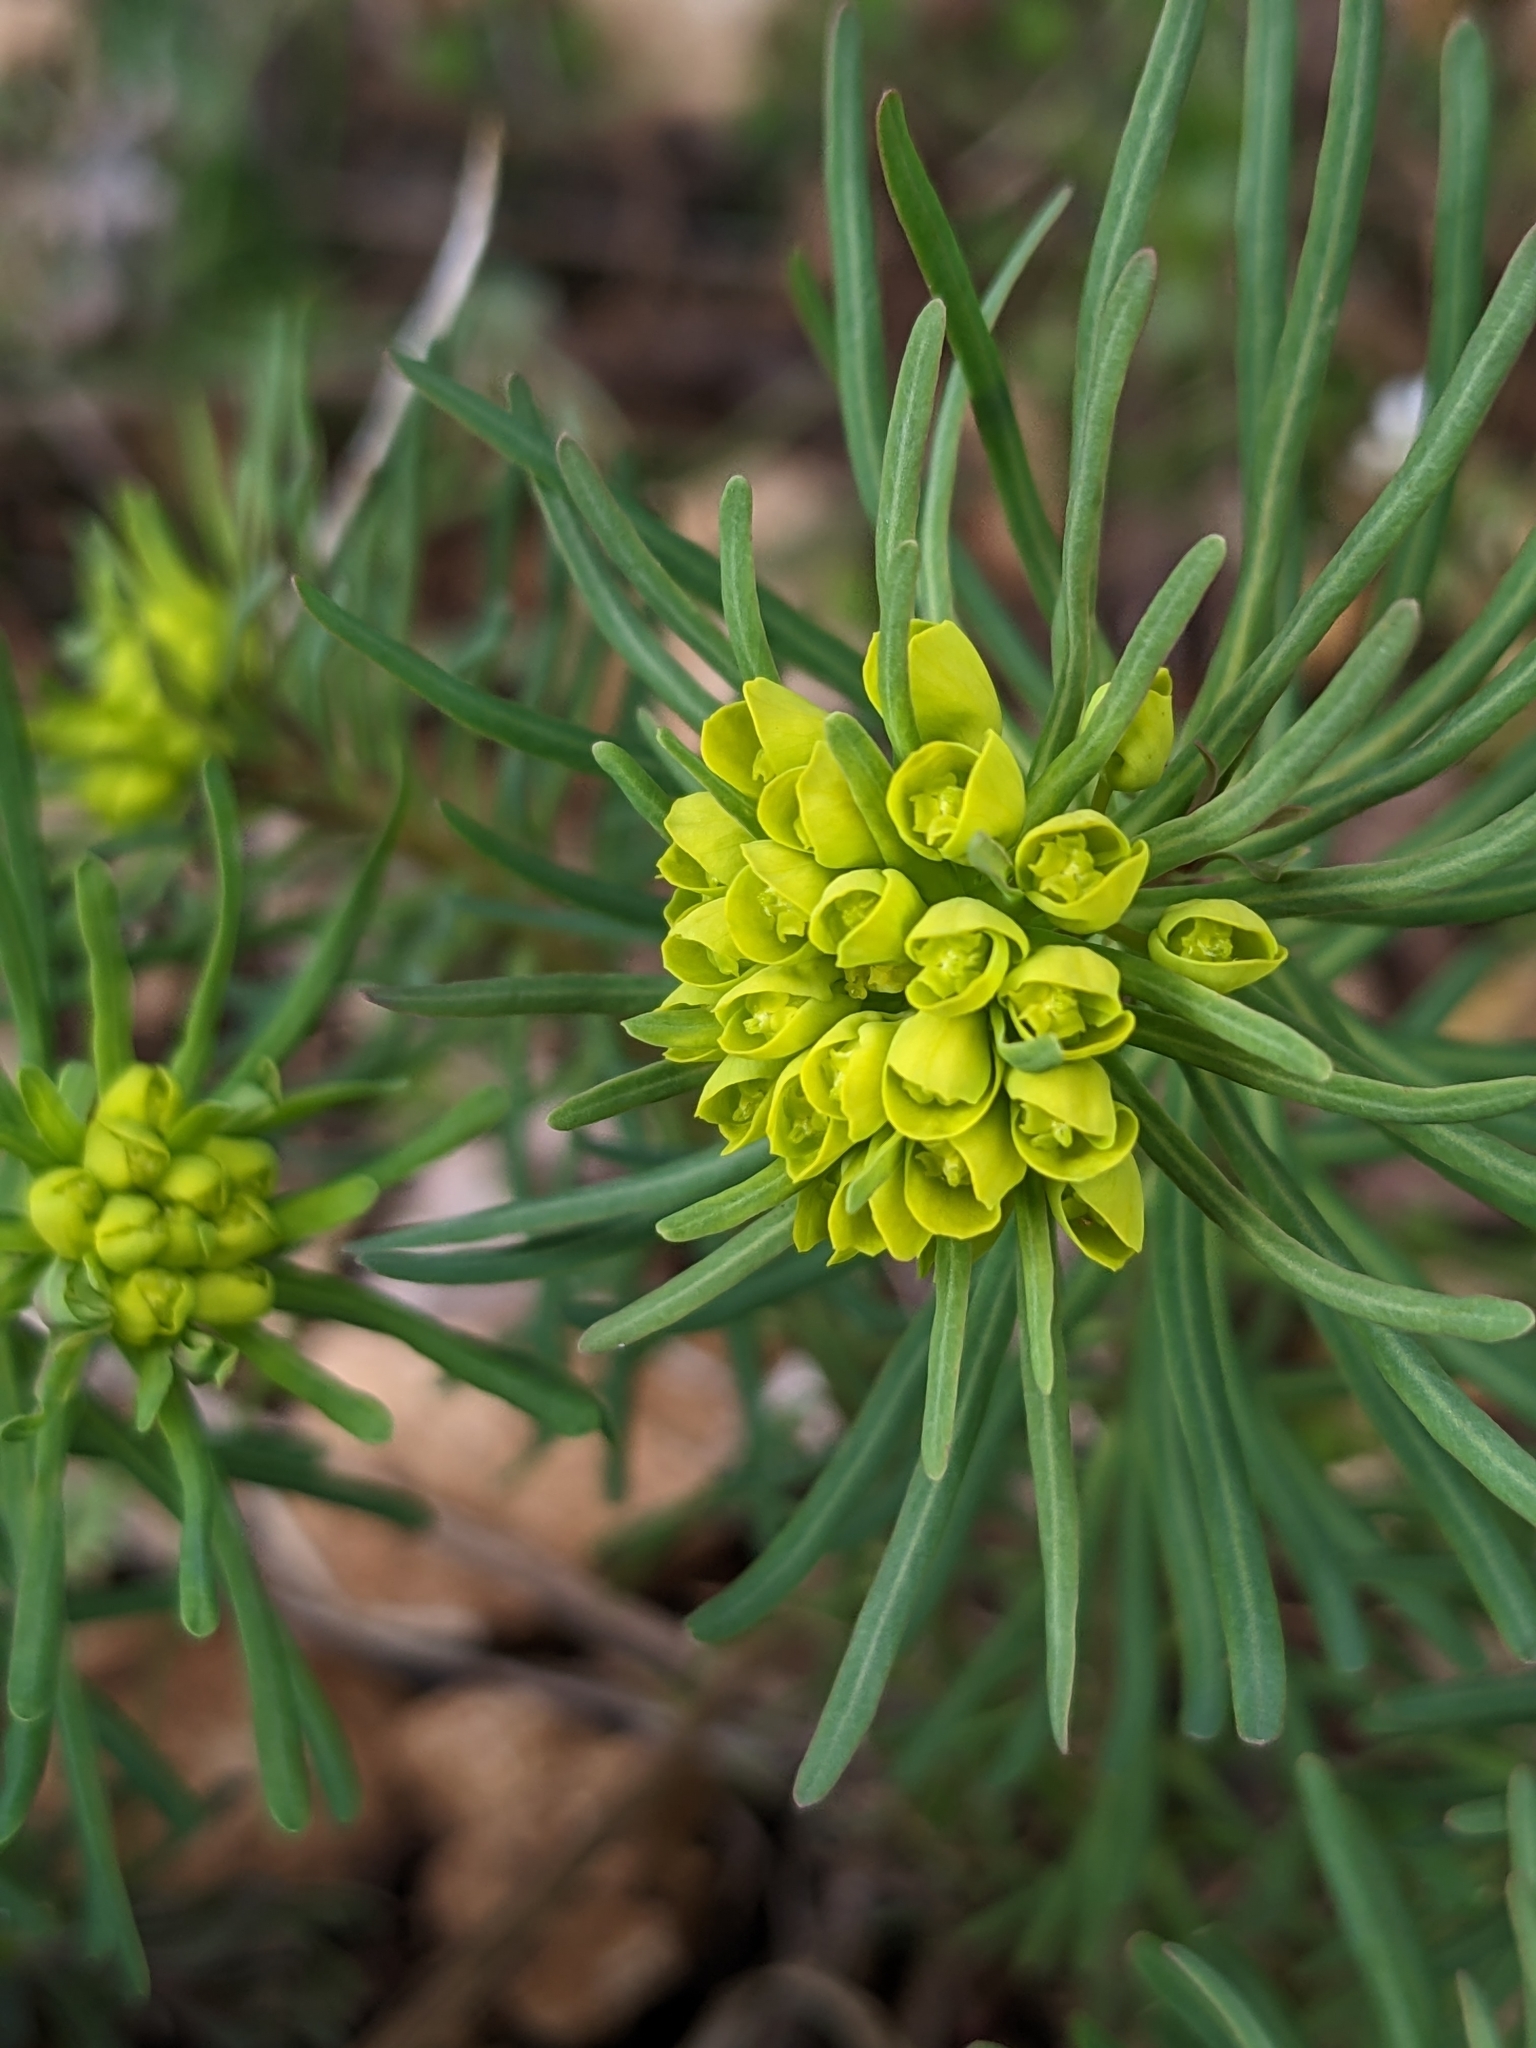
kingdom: Plantae
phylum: Tracheophyta
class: Magnoliopsida
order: Malpighiales
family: Euphorbiaceae
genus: Euphorbia
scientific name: Euphorbia cyparissias
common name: Cypress spurge
